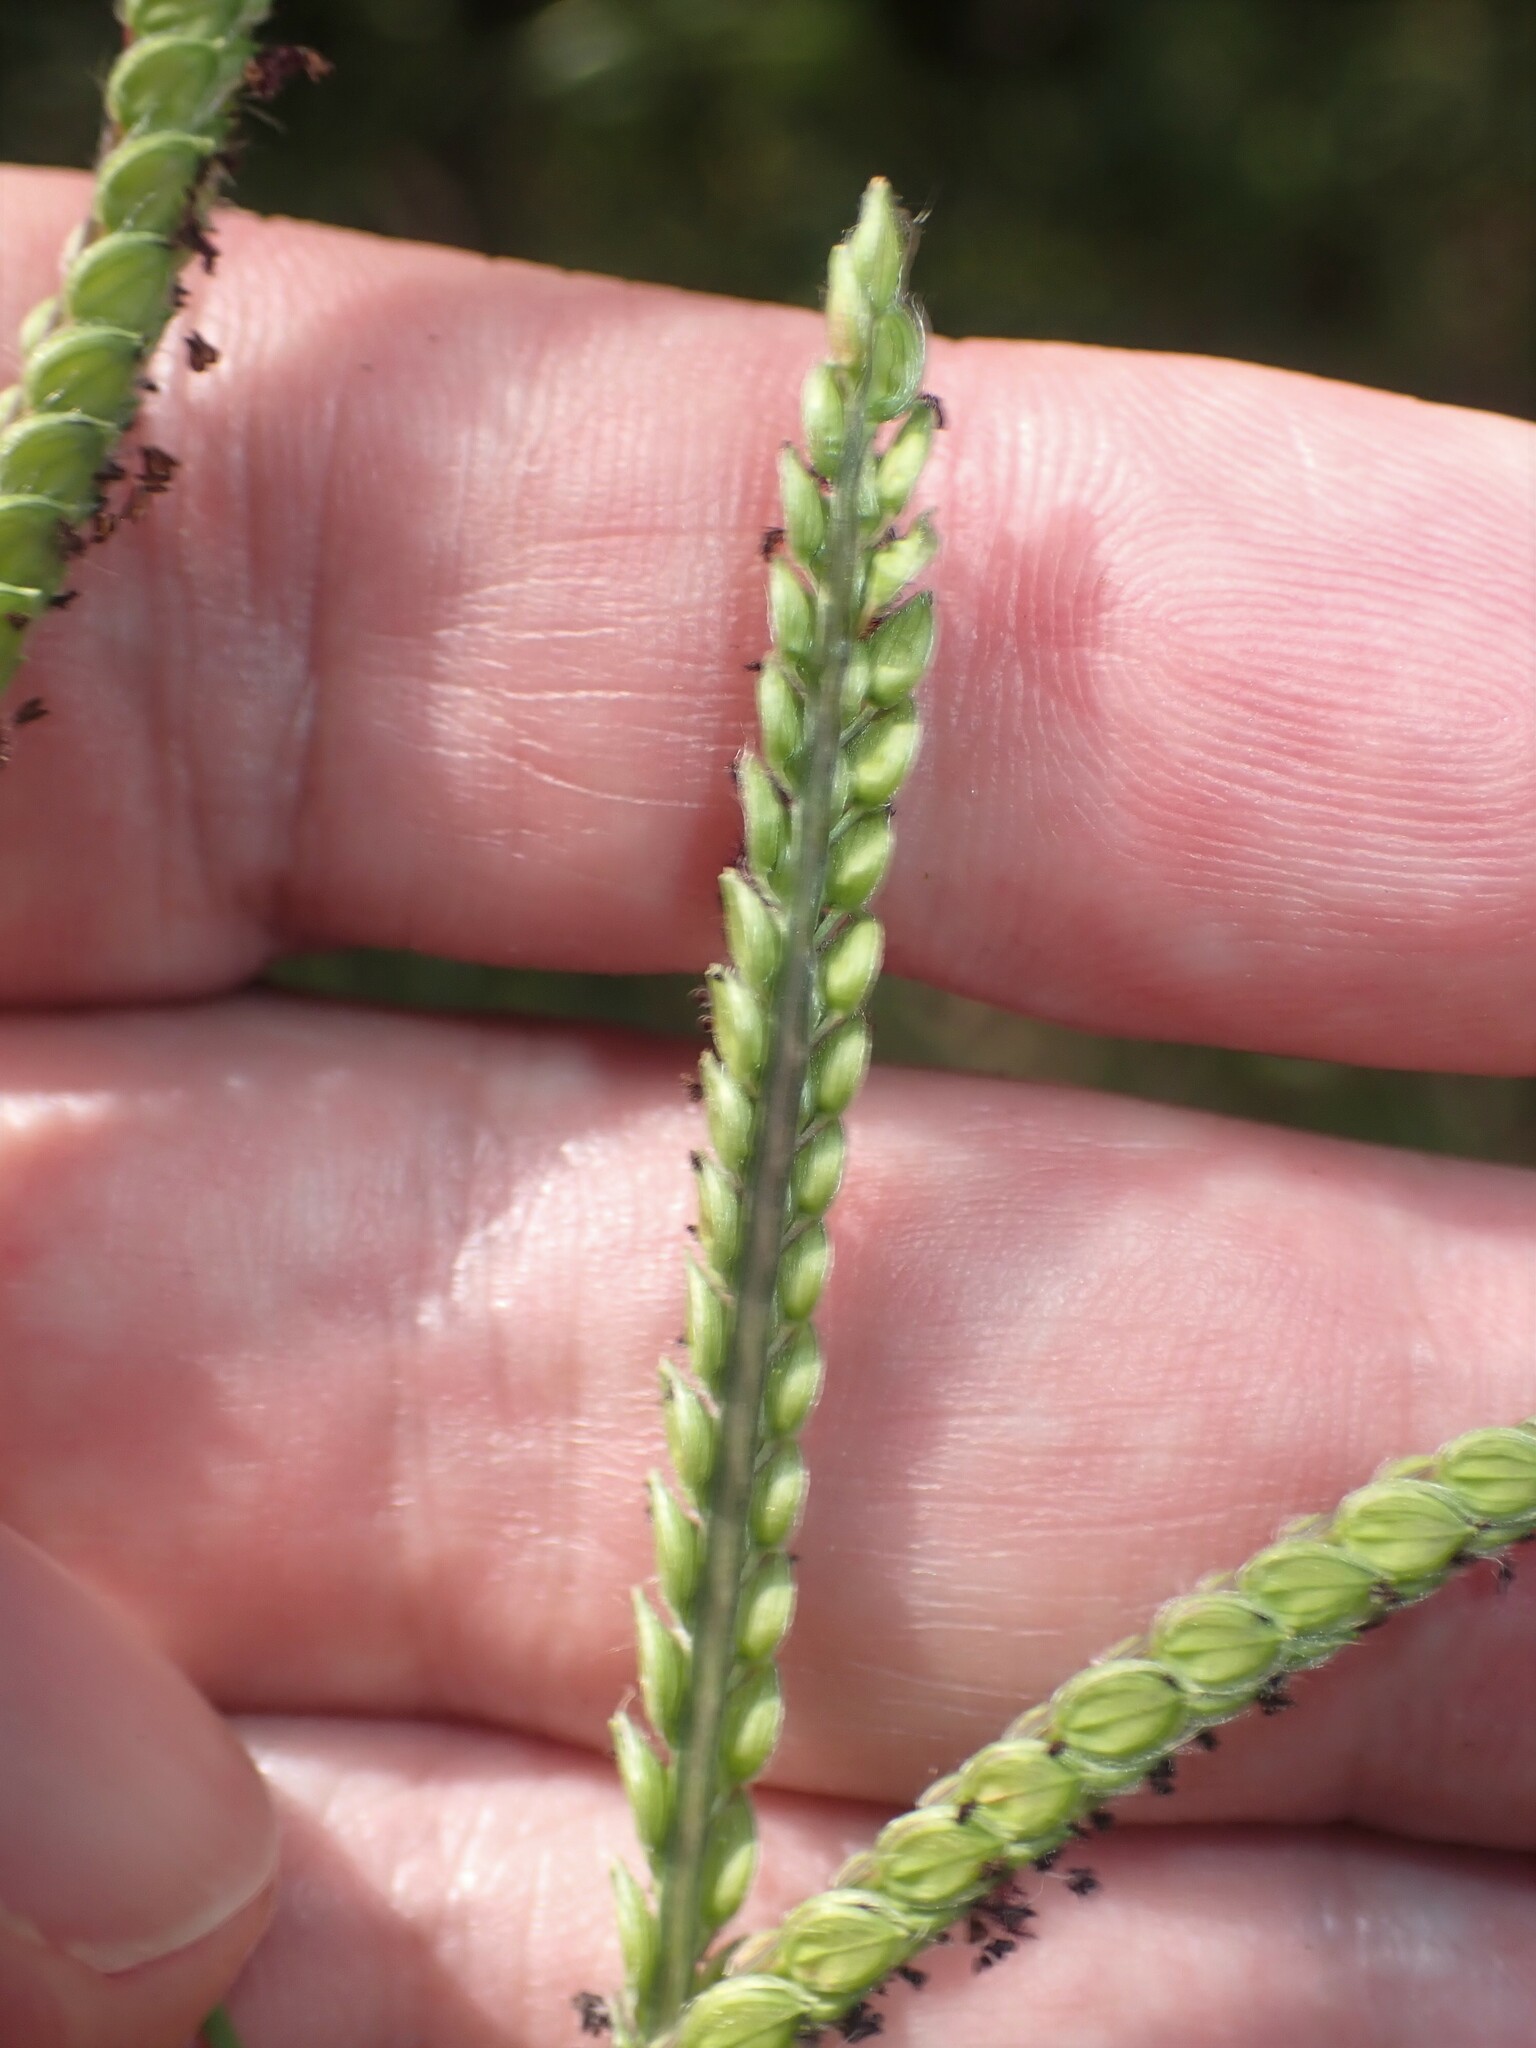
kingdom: Plantae
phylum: Tracheophyta
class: Liliopsida
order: Poales
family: Poaceae
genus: Paspalum
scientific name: Paspalum dilatatum
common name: Dallisgrass
